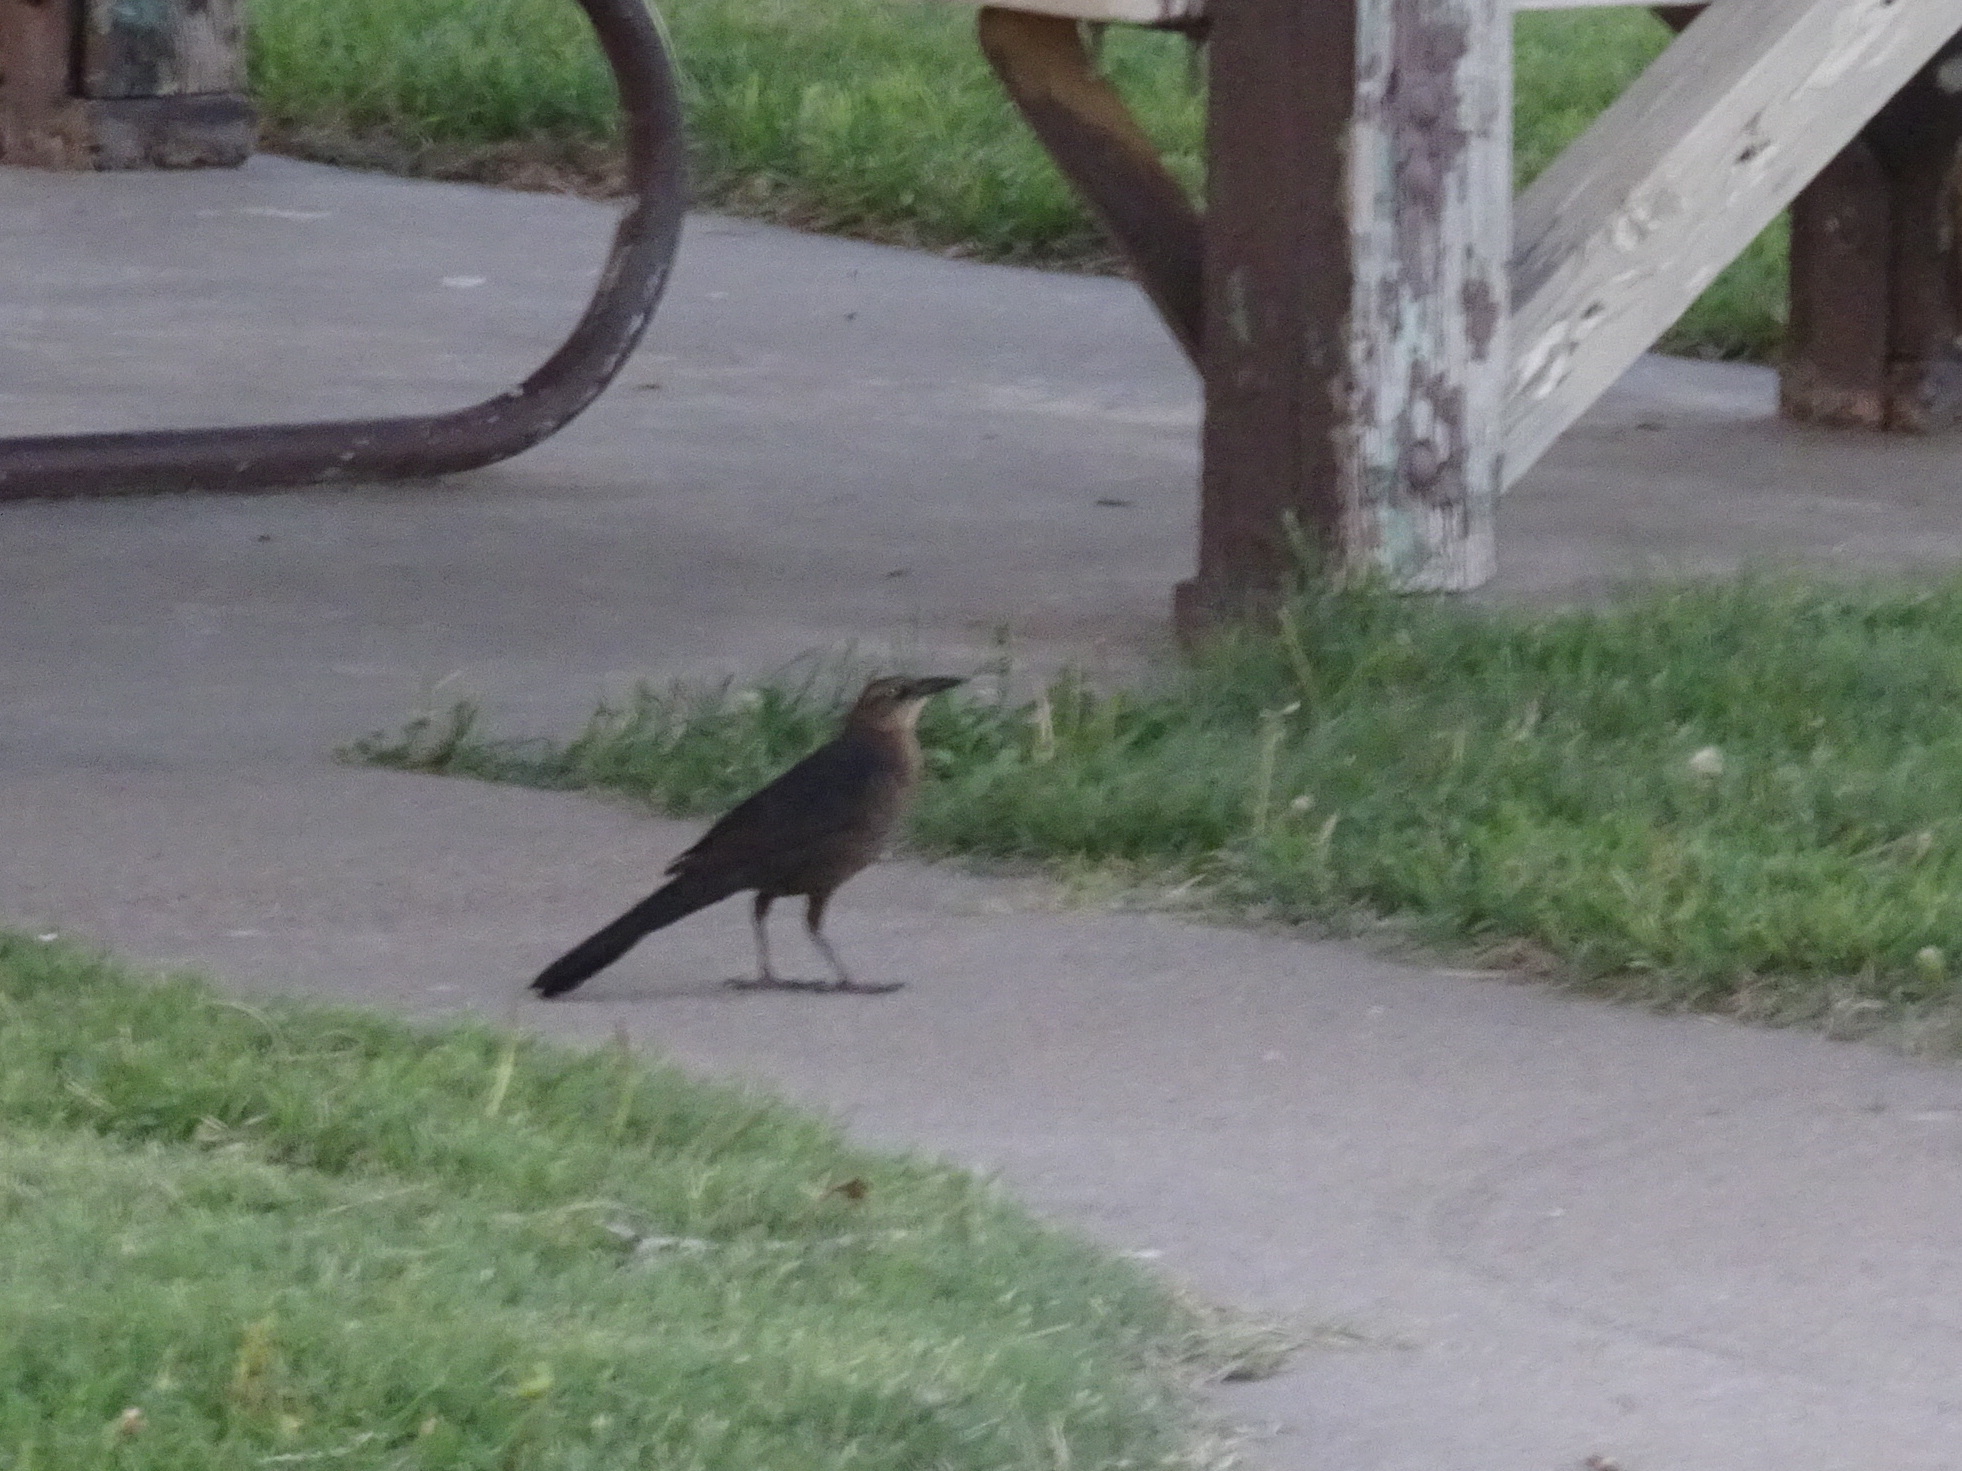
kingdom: Animalia
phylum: Chordata
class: Aves
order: Passeriformes
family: Icteridae
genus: Quiscalus
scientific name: Quiscalus mexicanus
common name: Great-tailed grackle
